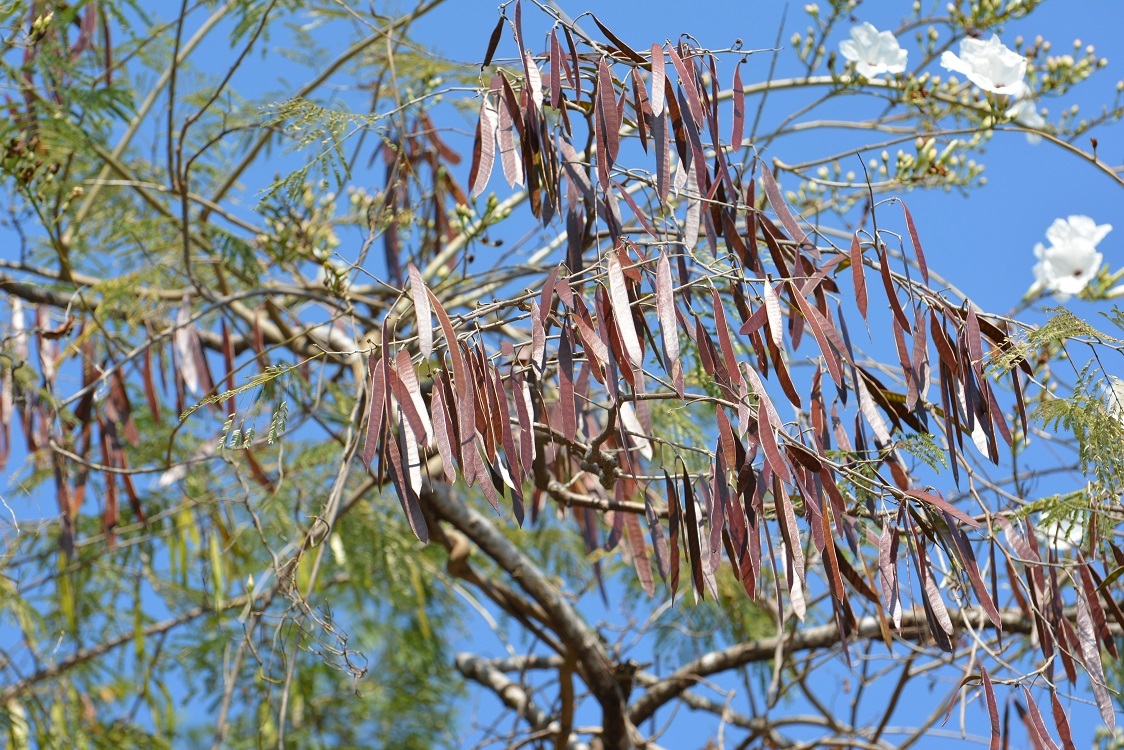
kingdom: Plantae
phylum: Tracheophyta
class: Magnoliopsida
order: Fabales
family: Fabaceae
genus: Leucaena
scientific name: Leucaena diversifolia
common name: Red leucaena
